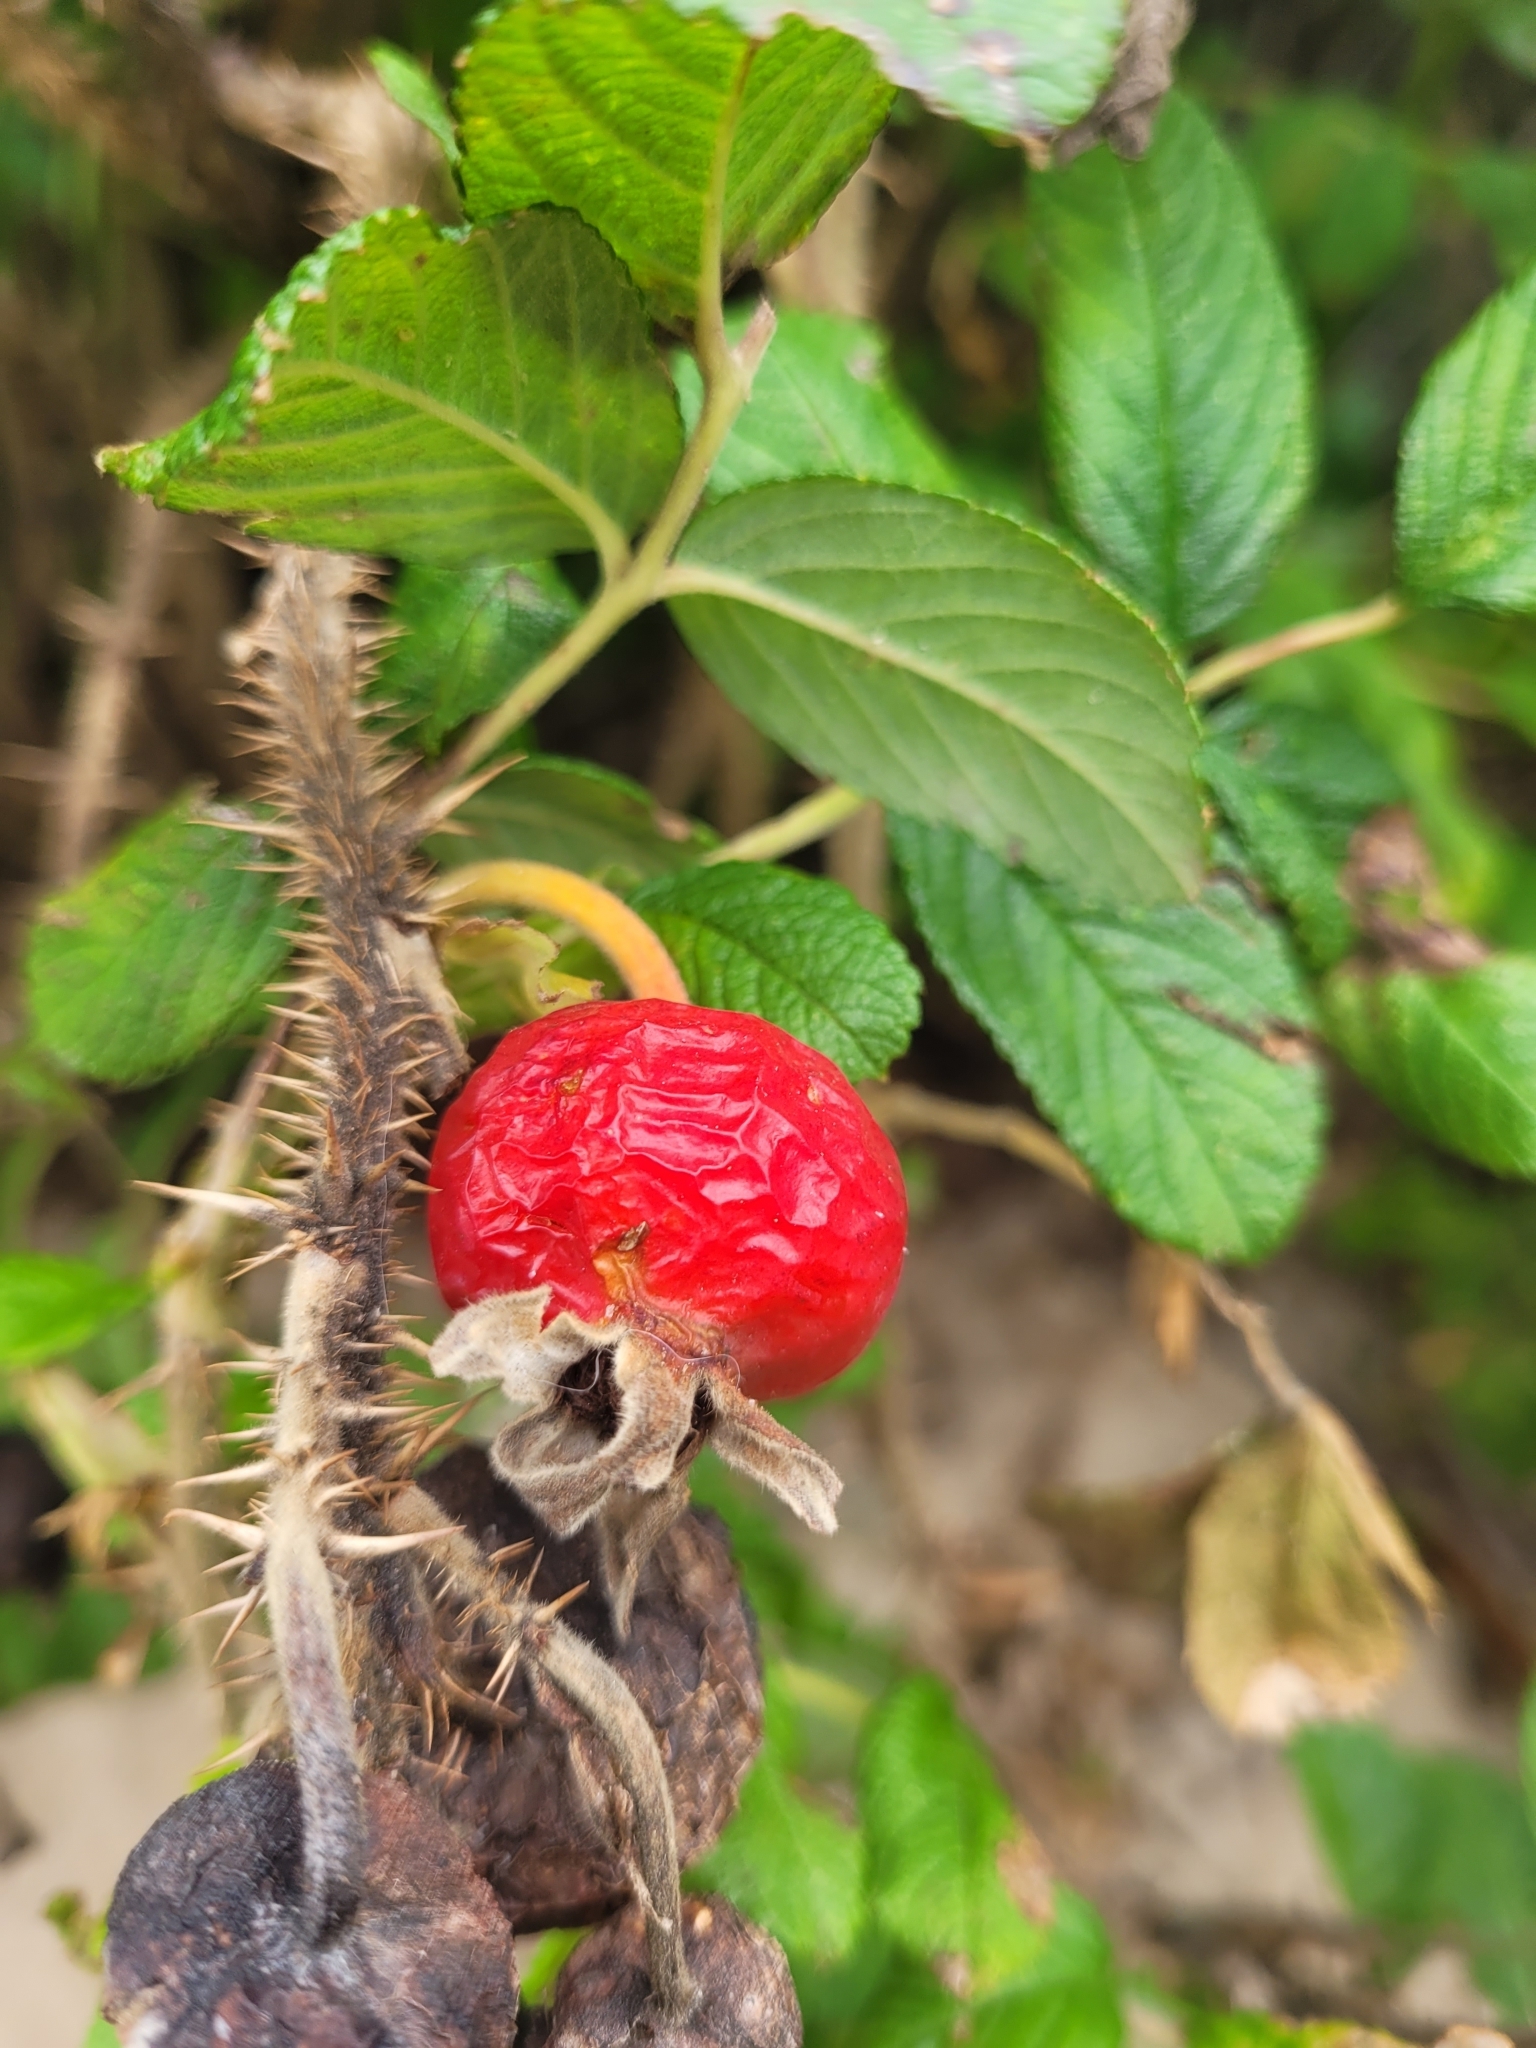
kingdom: Plantae
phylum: Tracheophyta
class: Magnoliopsida
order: Rosales
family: Rosaceae
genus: Rosa
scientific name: Rosa rugosa
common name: Japanese rose
